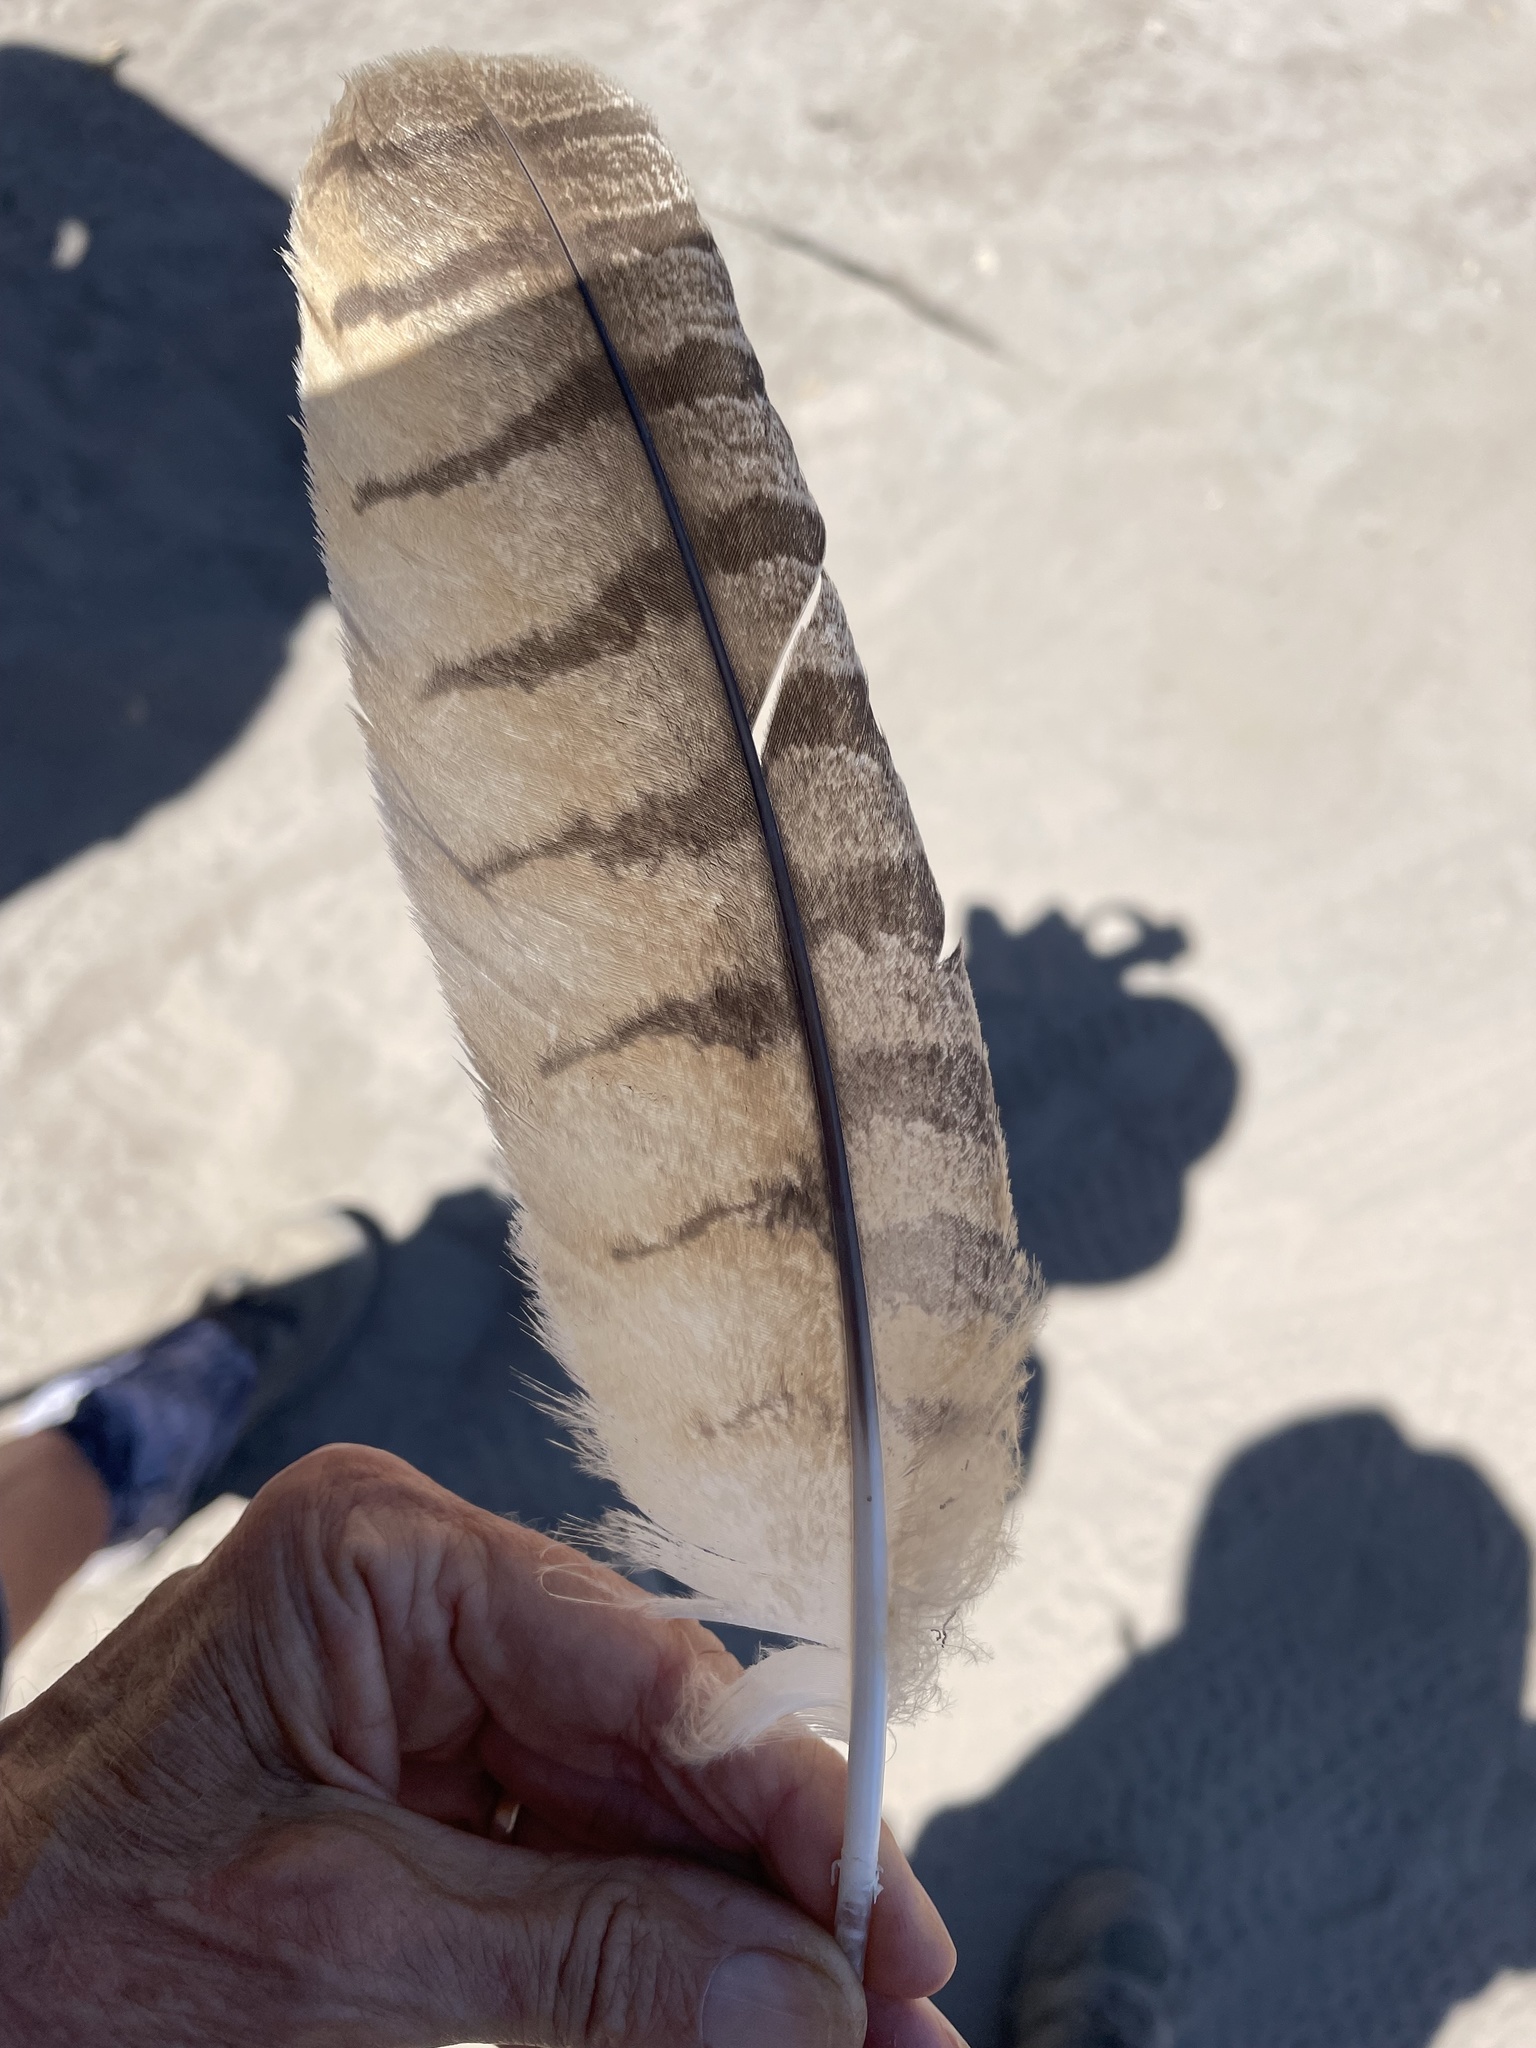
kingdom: Animalia
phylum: Chordata
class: Aves
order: Strigiformes
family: Strigidae
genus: Bubo
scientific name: Bubo virginianus
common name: Great horned owl
